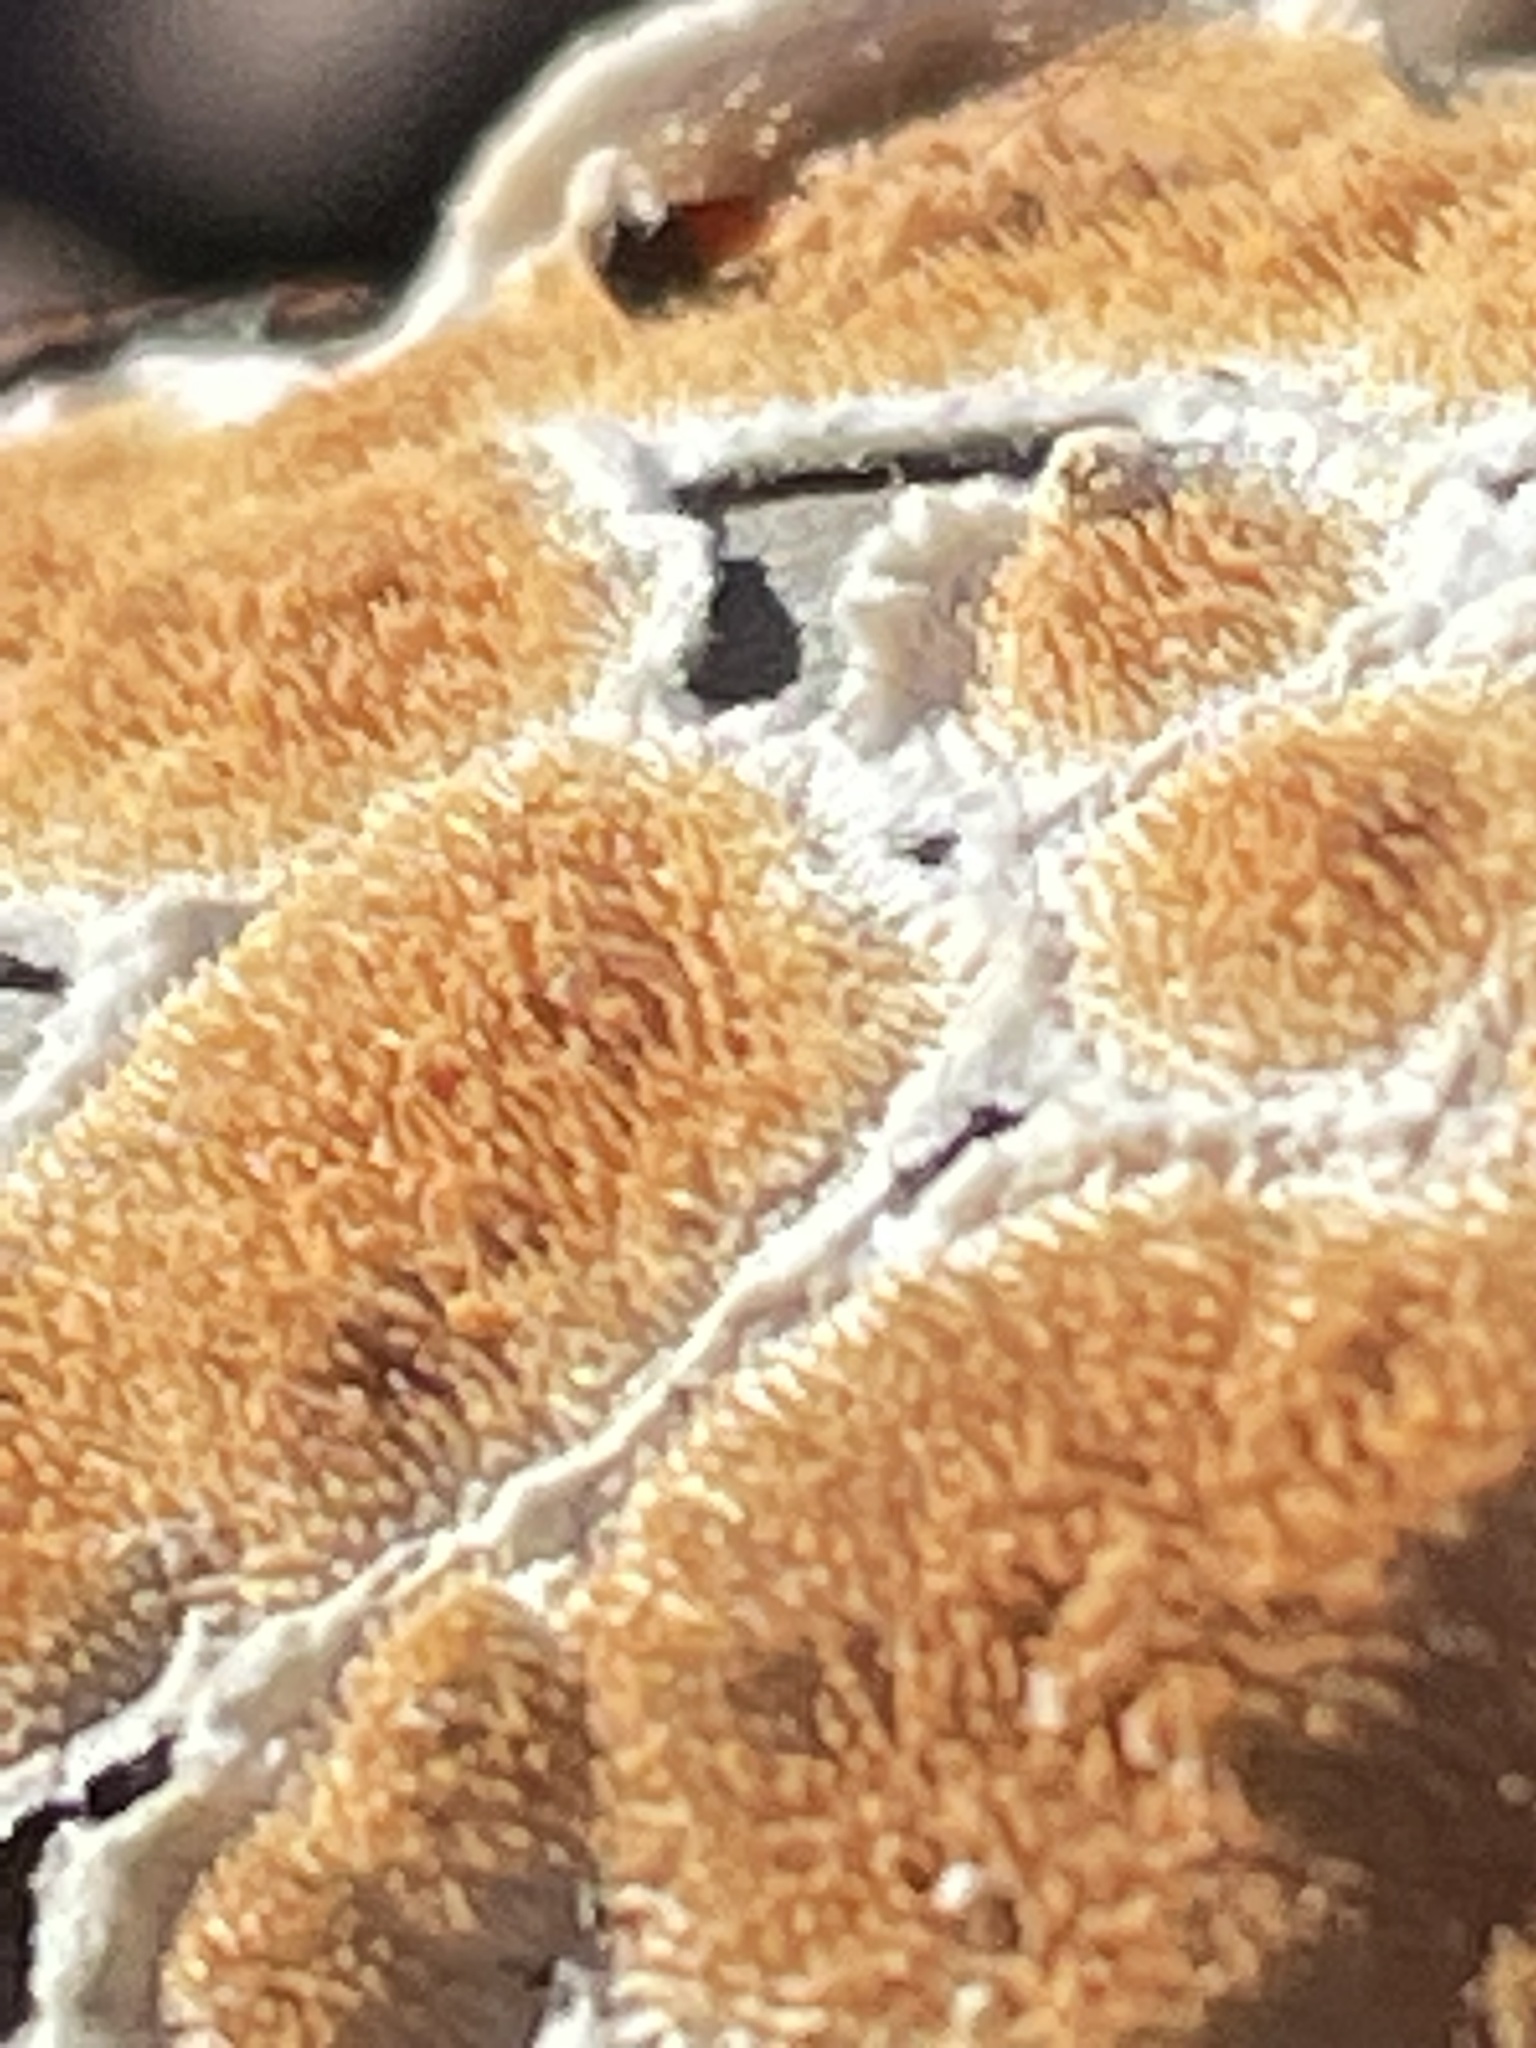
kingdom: Fungi
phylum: Basidiomycota
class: Agaricomycetes
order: Polyporales
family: Steccherinaceae
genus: Steccherinum
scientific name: Steccherinum ochraceum
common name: Ochre spreading tooth
